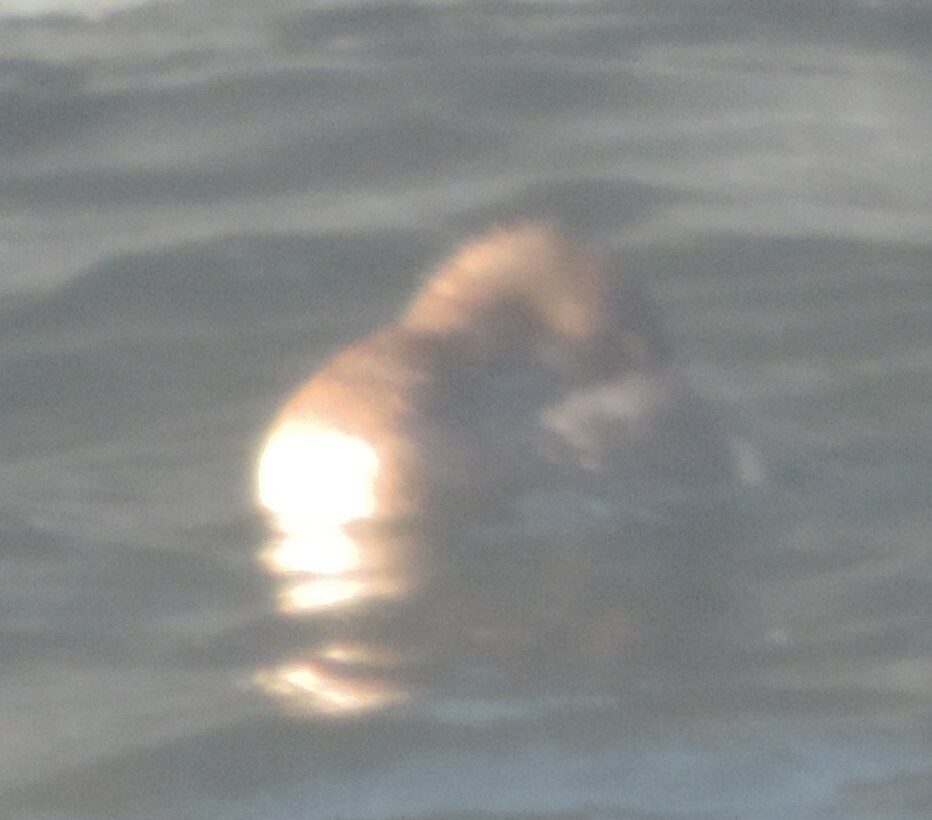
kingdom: Animalia
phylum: Chordata
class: Aves
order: Podicipediformes
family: Podicipedidae
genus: Podilymbus
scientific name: Podilymbus podiceps
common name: Pied-billed grebe
